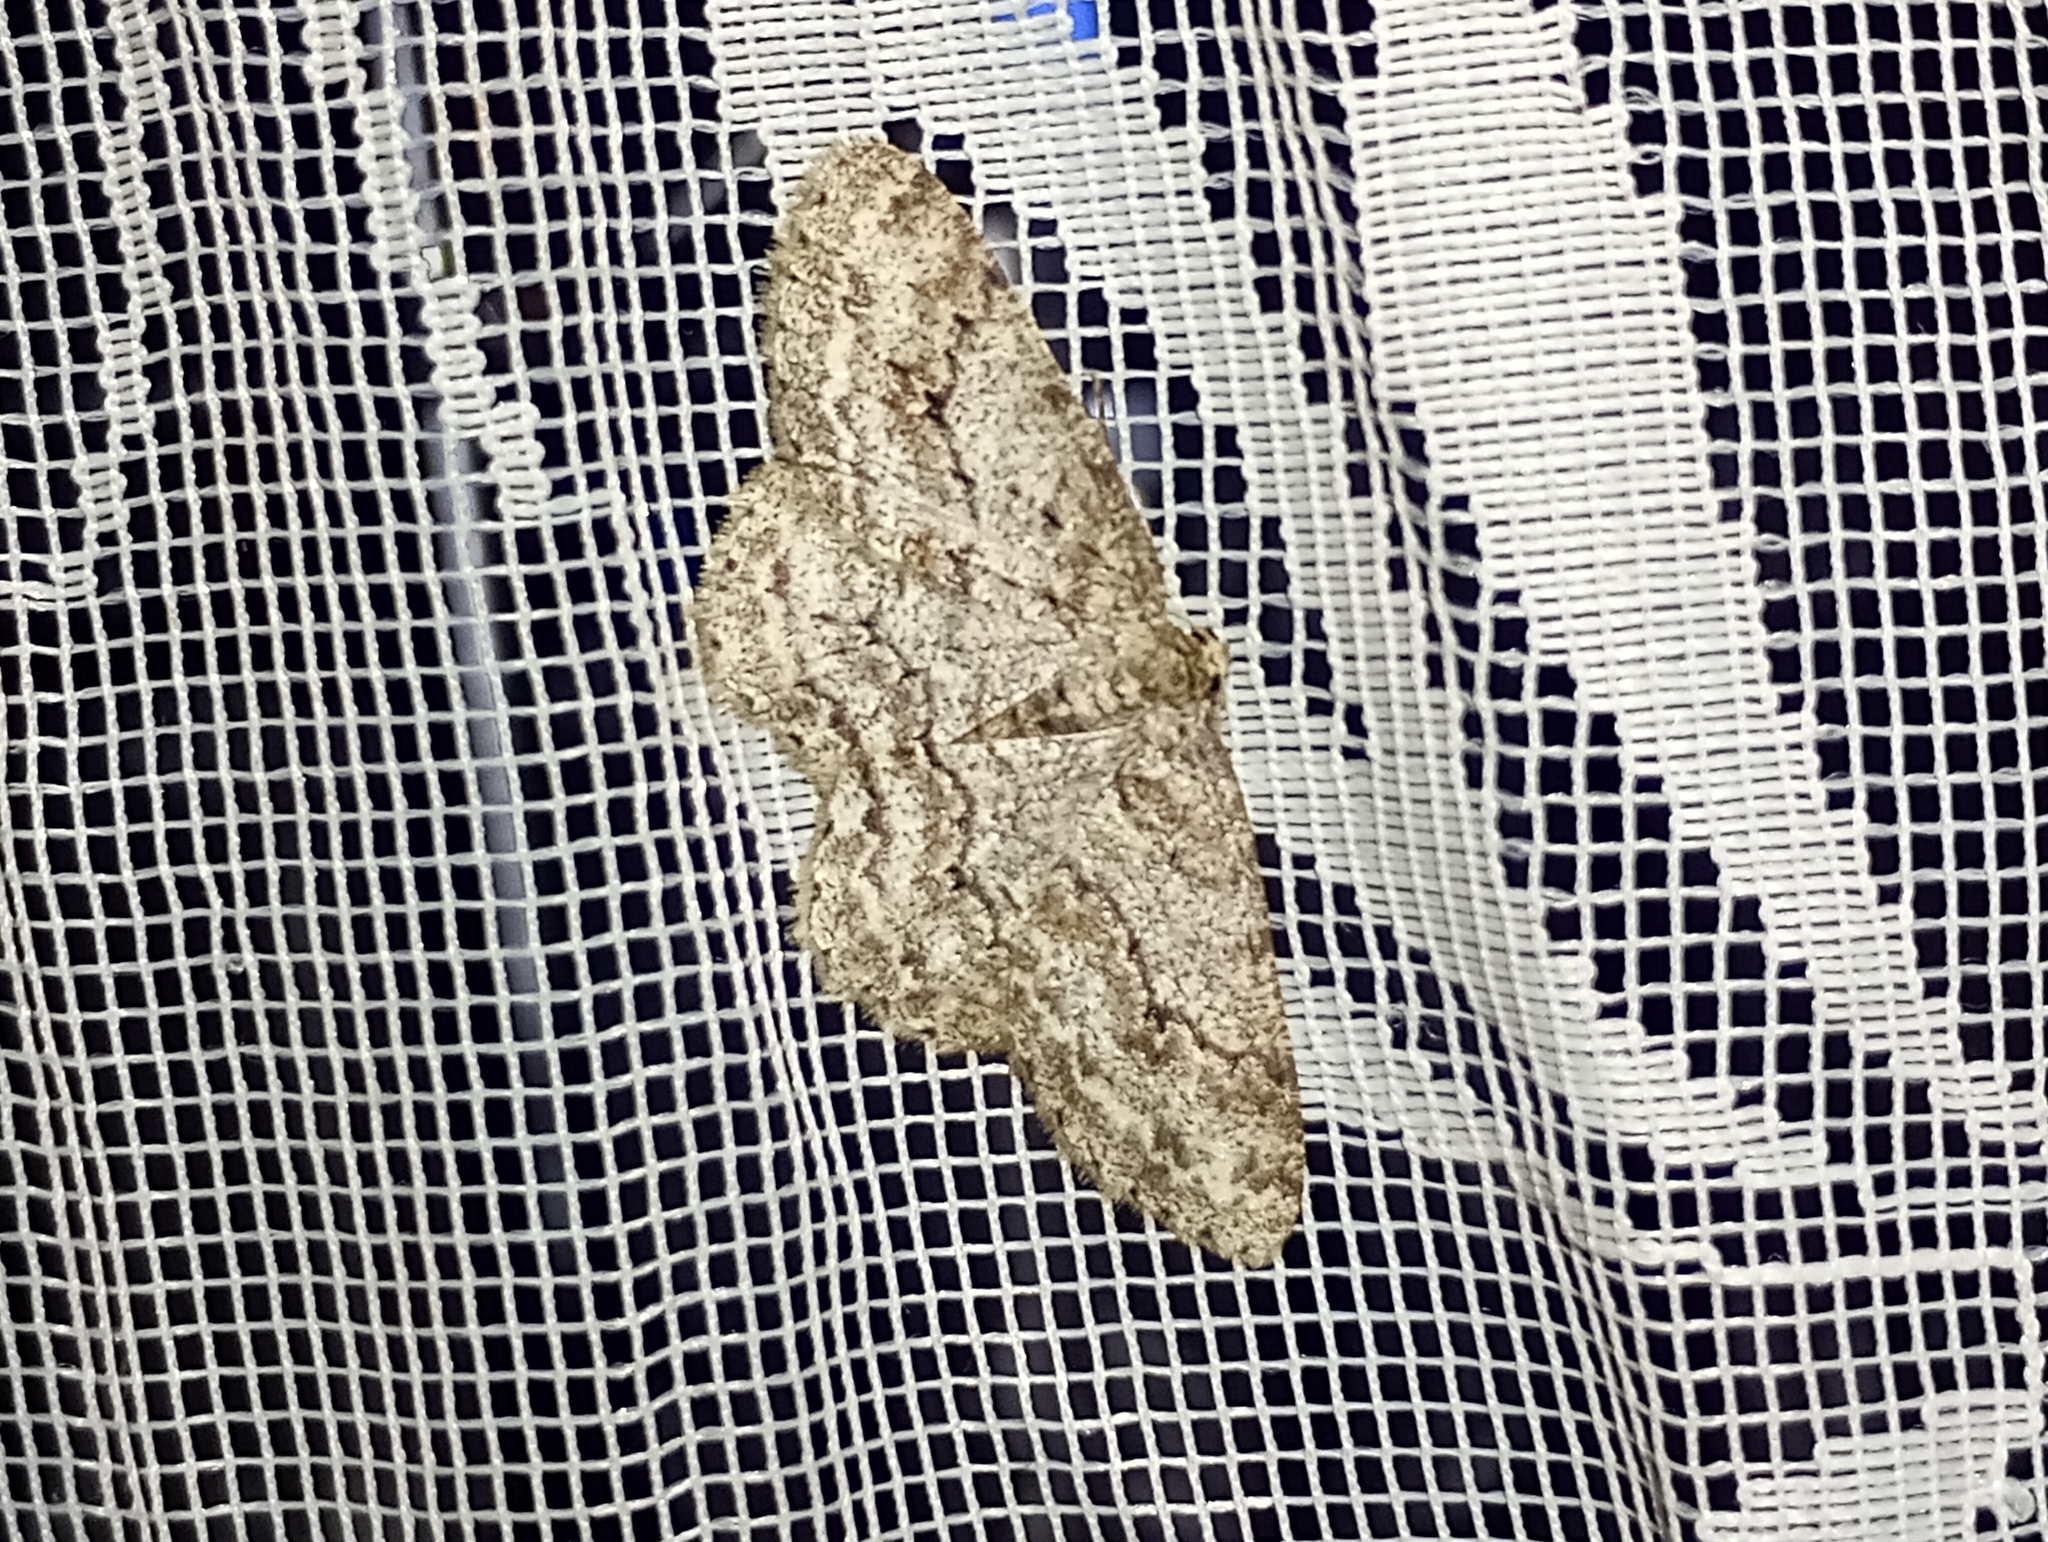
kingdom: Animalia
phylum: Arthropoda
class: Insecta
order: Lepidoptera
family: Geometridae
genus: Ectropis
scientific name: Ectropis crepuscularia
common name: Engrailed
